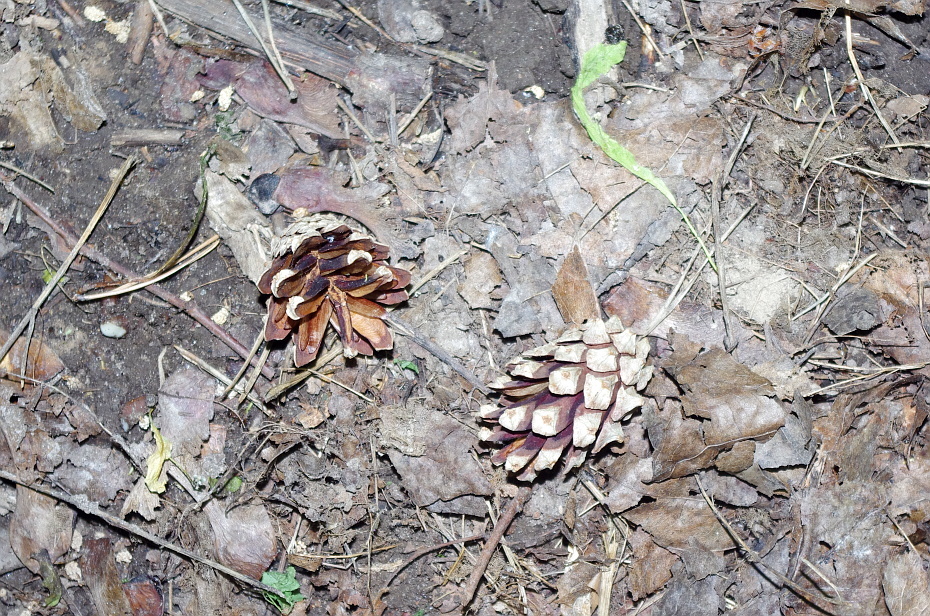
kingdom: Plantae
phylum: Tracheophyta
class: Pinopsida
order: Pinales
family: Pinaceae
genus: Pinus
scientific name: Pinus sylvestris
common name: Scots pine
